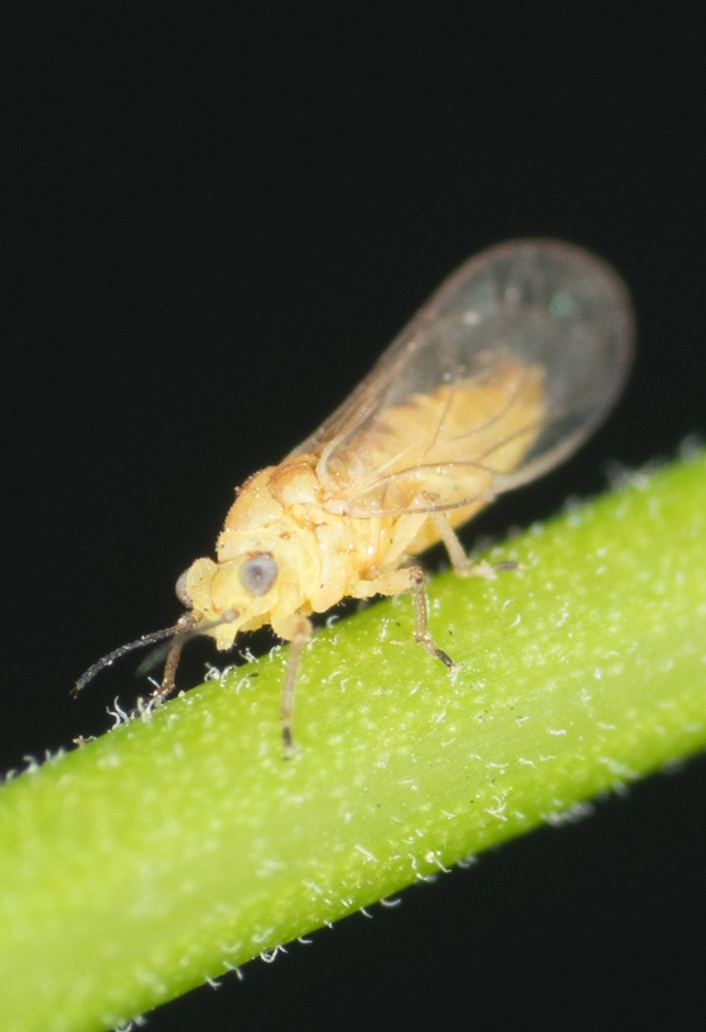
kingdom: Animalia
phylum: Arthropoda
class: Insecta
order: Hemiptera
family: Calophyidae
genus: Calophya
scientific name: Calophya schini
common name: Pepper tree psyllid
